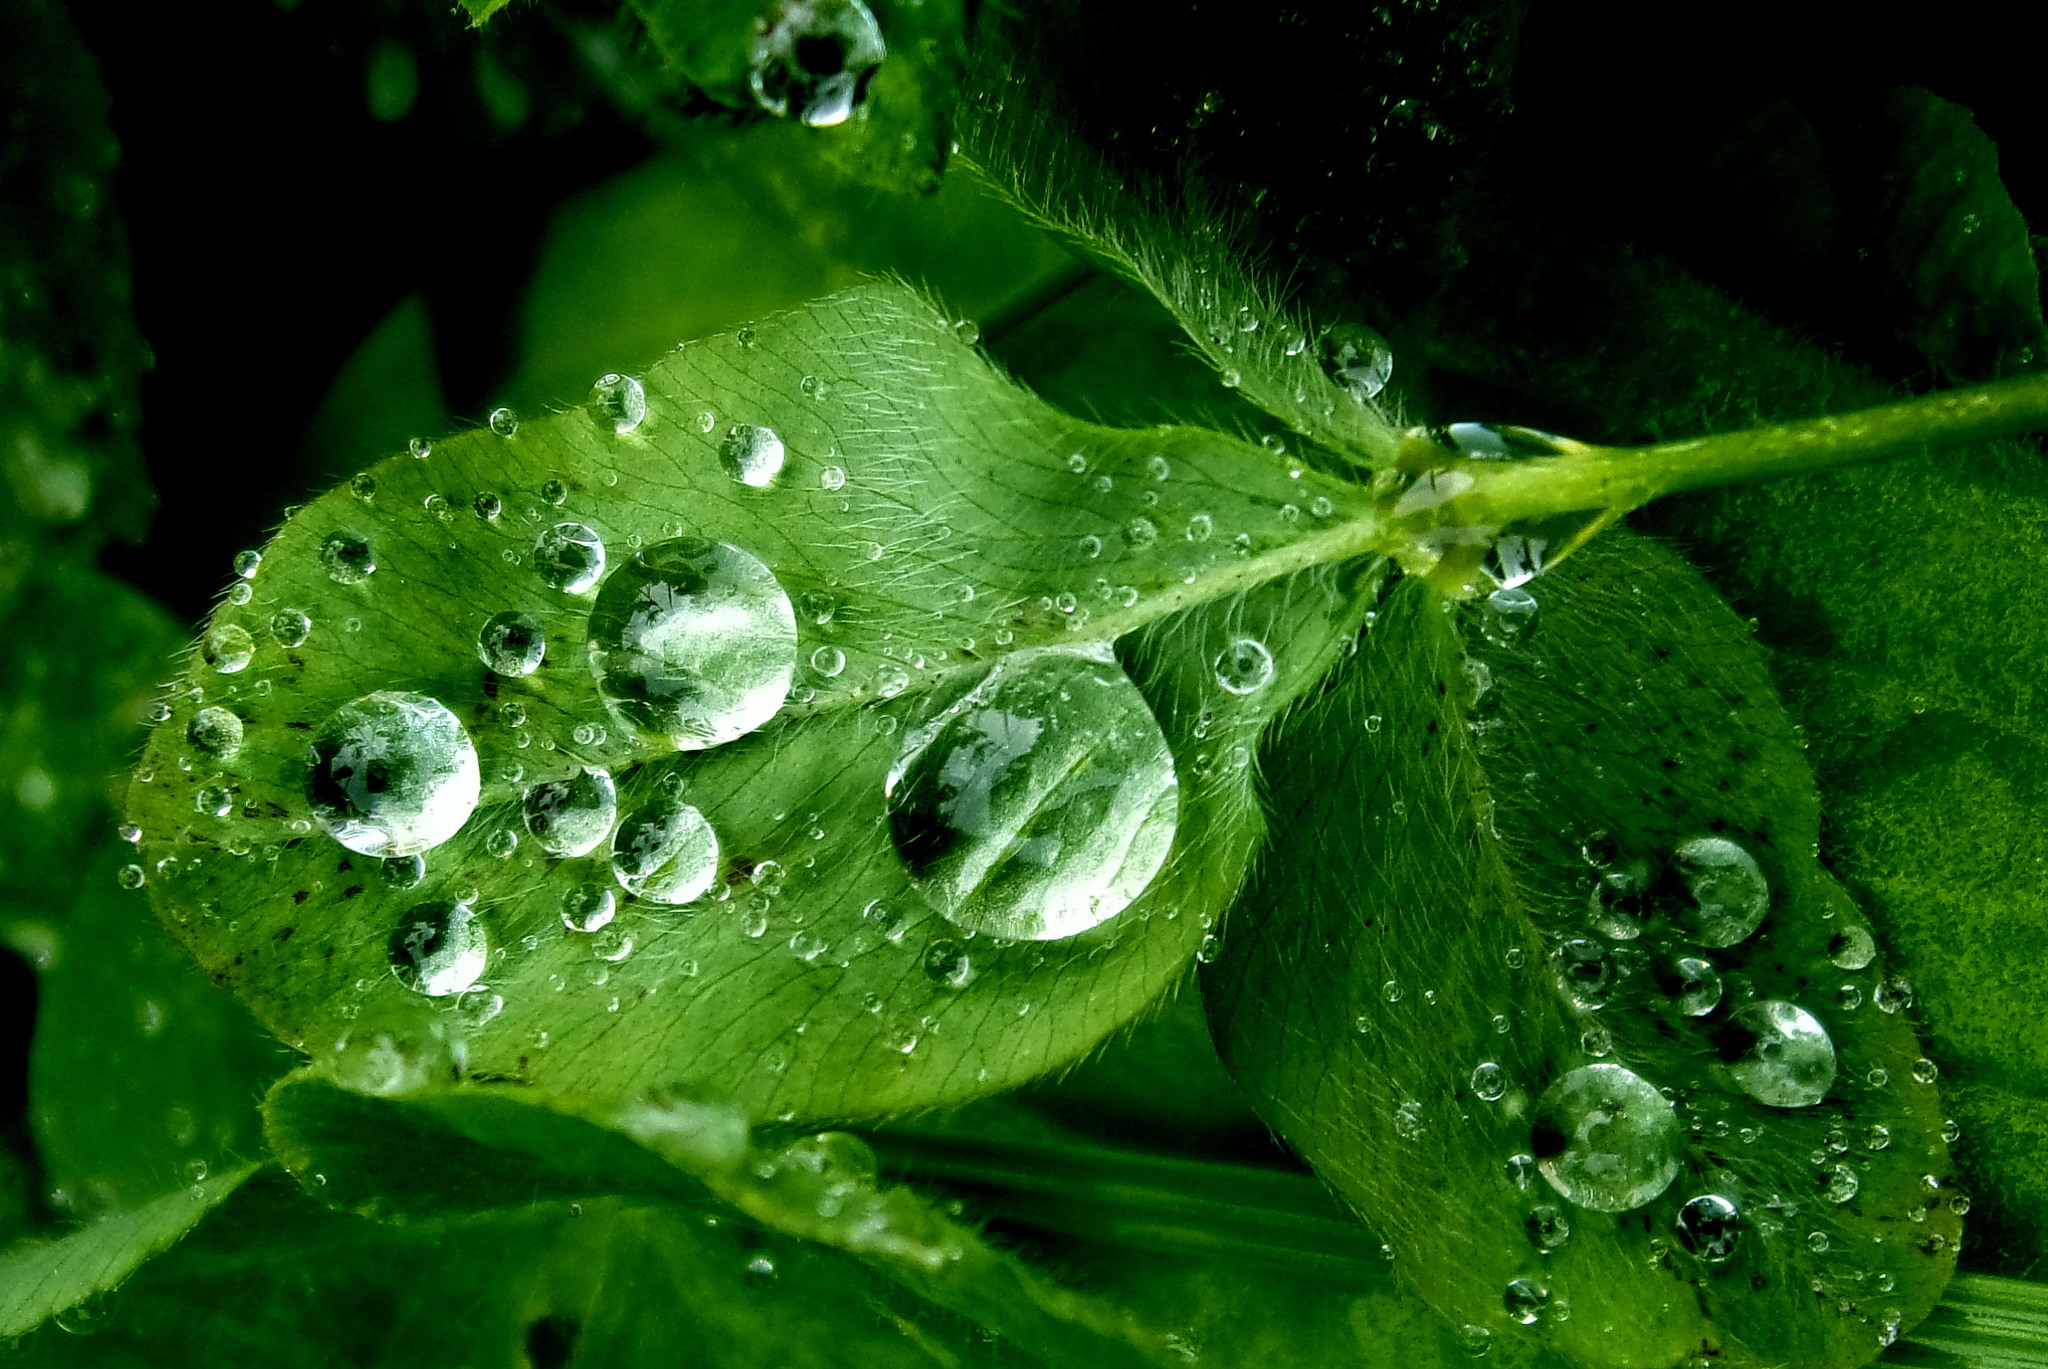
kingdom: Plantae
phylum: Tracheophyta
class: Magnoliopsida
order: Fabales
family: Fabaceae
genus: Trifolium
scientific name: Trifolium pratense
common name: Red clover
